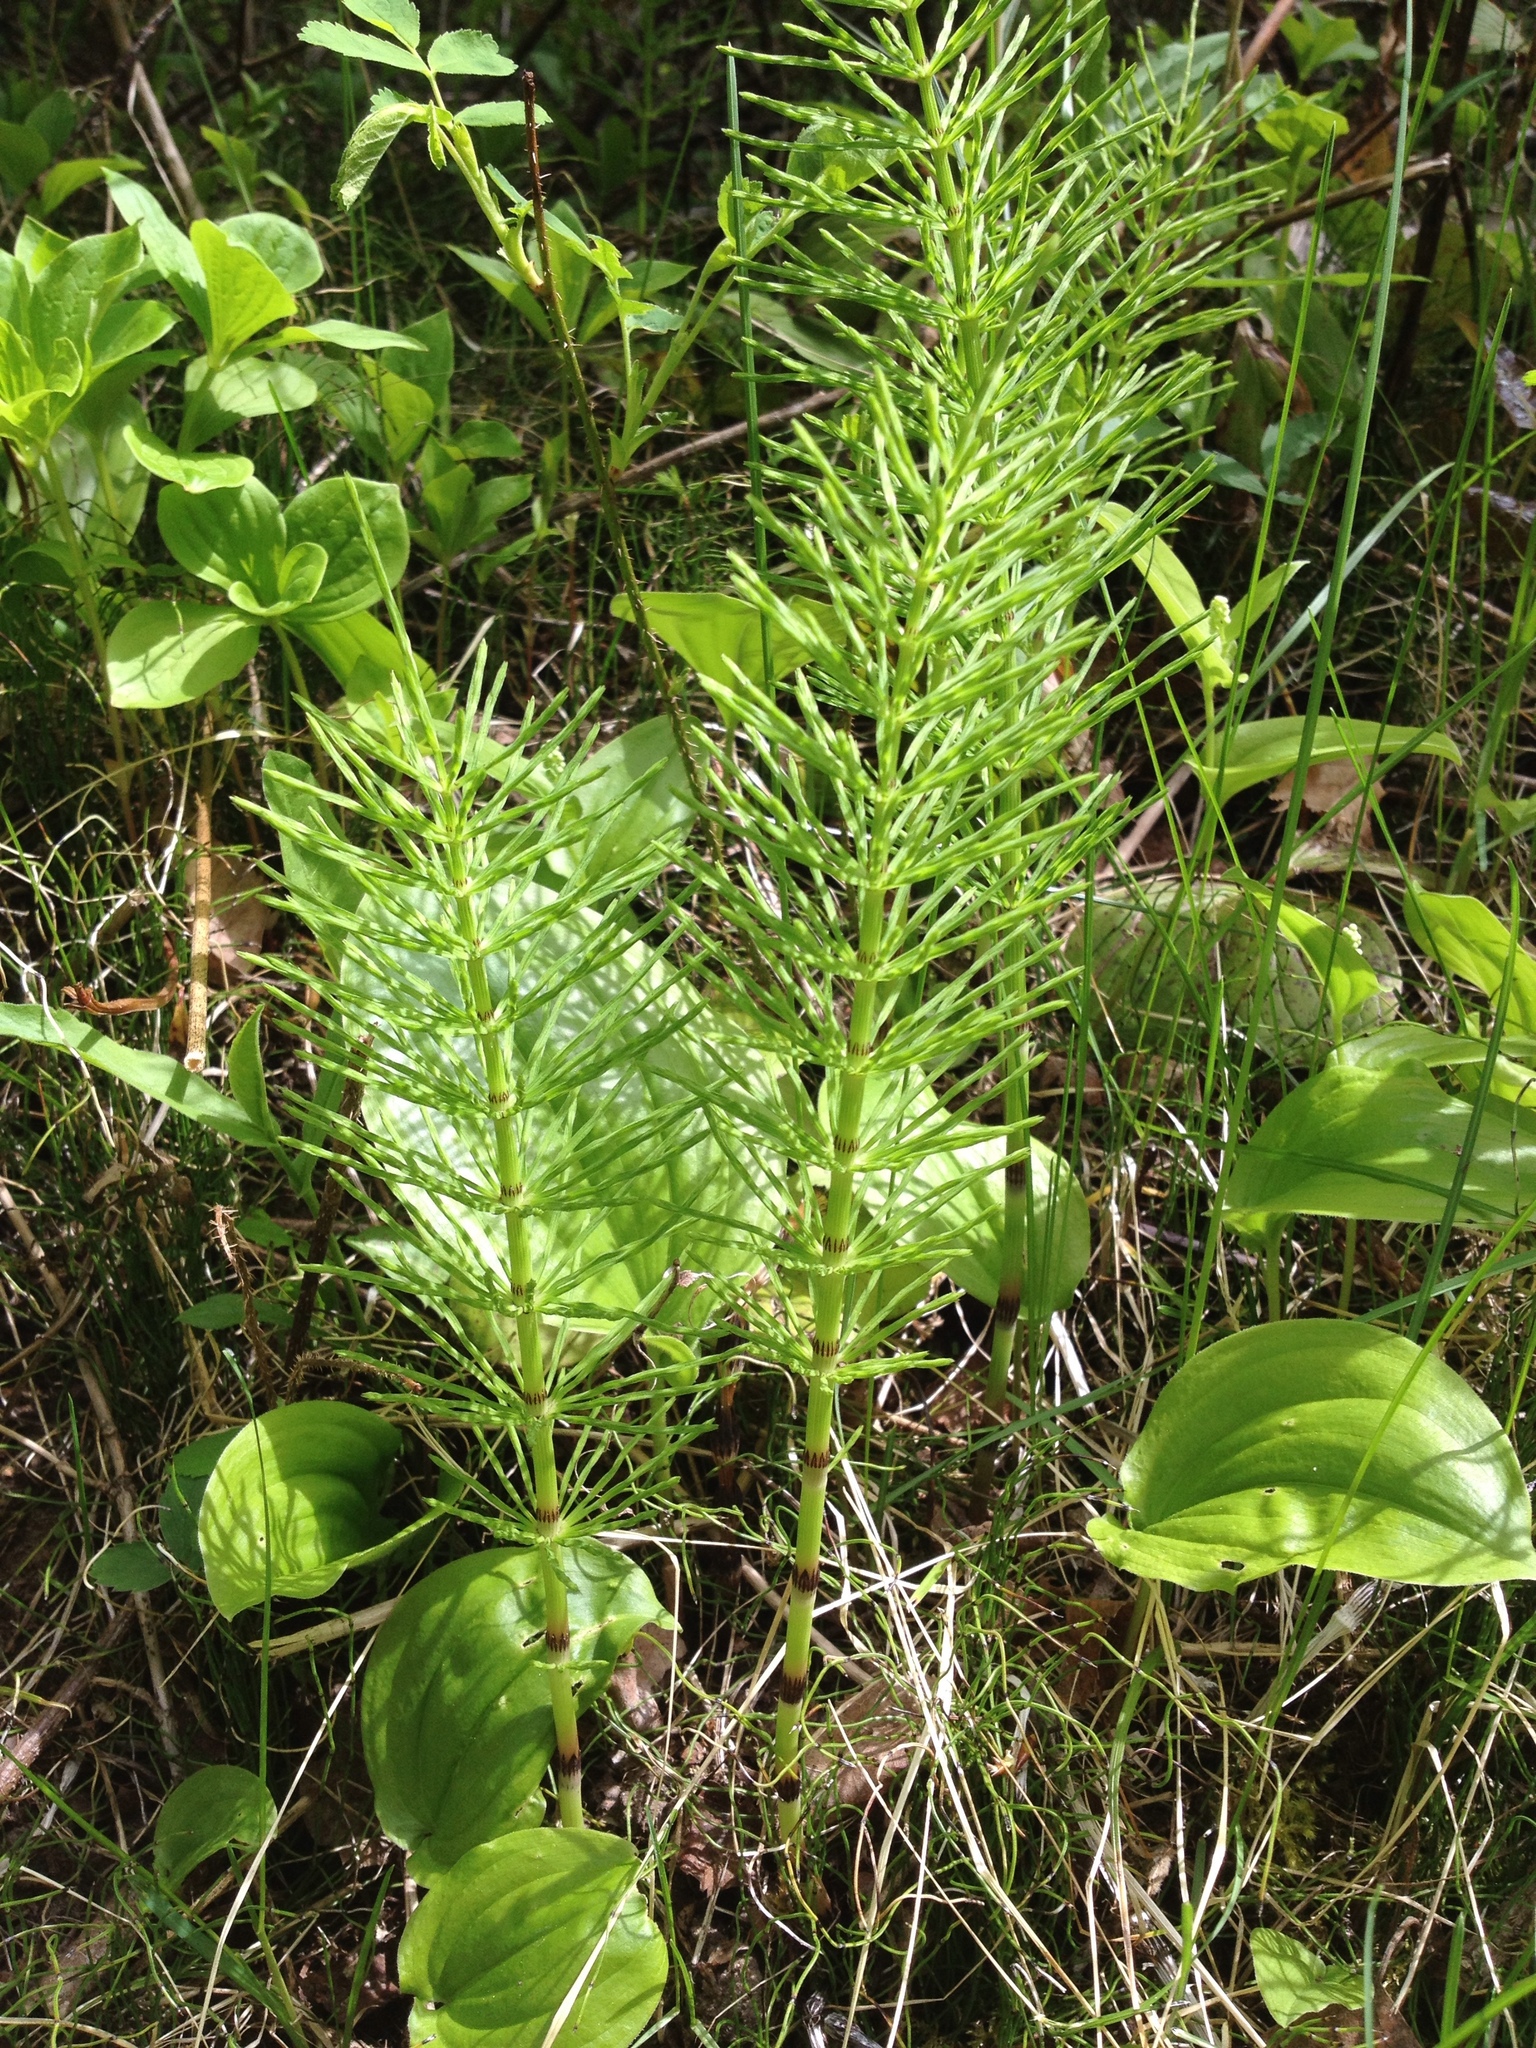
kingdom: Plantae
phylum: Tracheophyta
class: Polypodiopsida
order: Equisetales
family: Equisetaceae
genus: Equisetum
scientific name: Equisetum arvense
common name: Field horsetail
